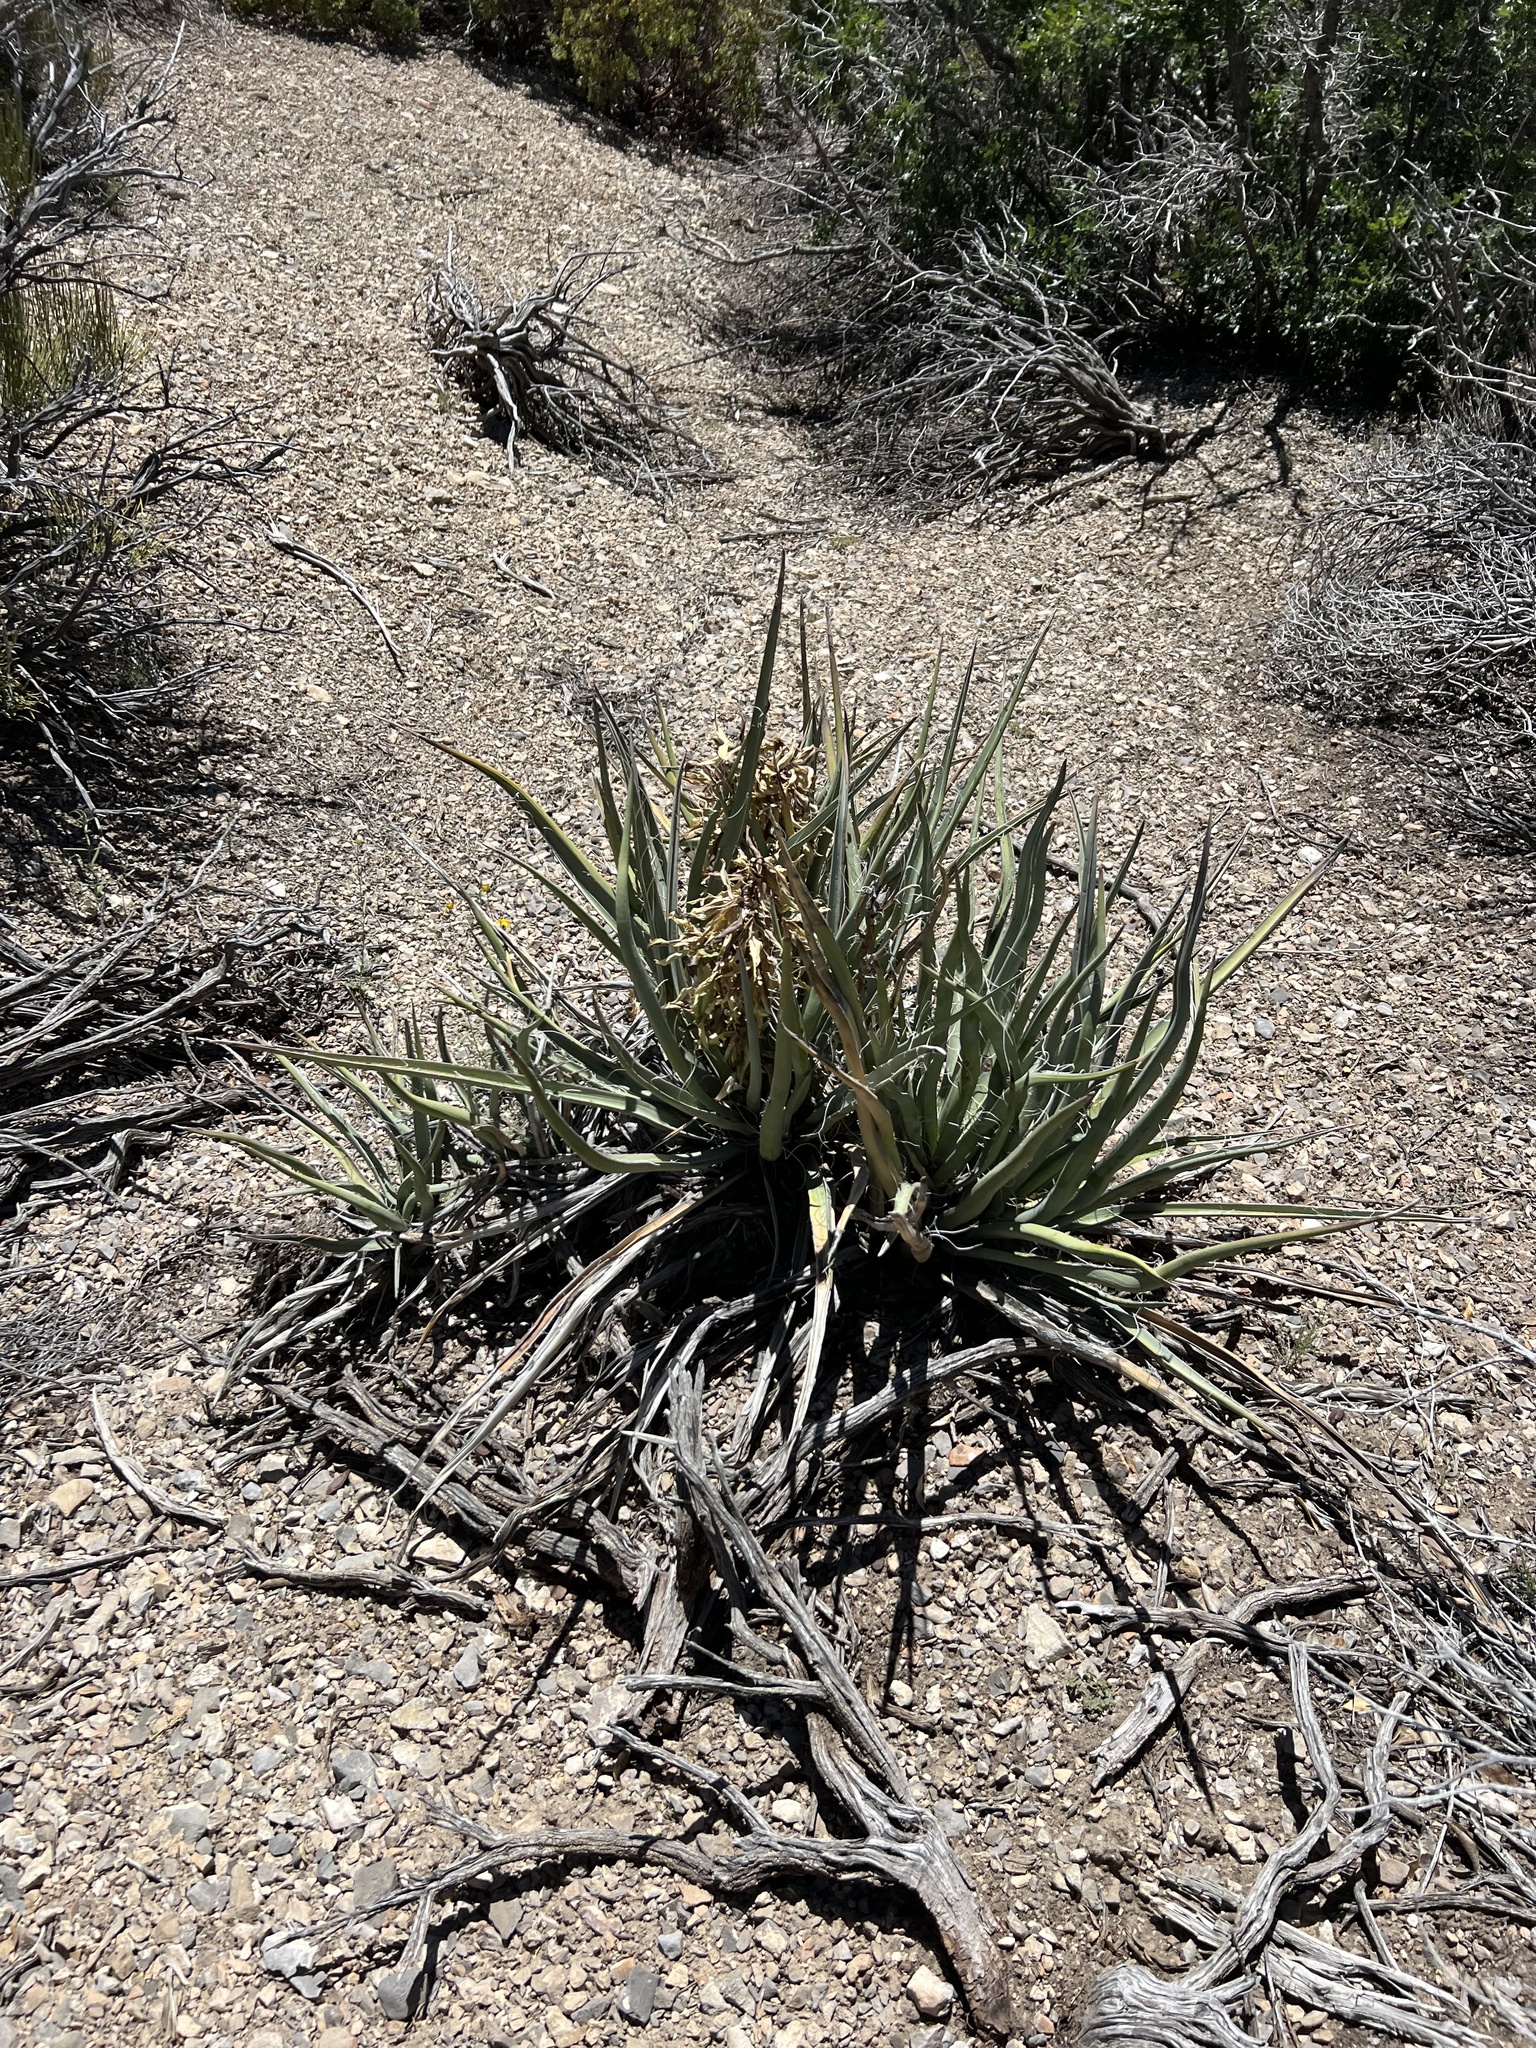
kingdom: Plantae
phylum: Tracheophyta
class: Liliopsida
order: Asparagales
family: Asparagaceae
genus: Yucca
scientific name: Yucca baccata
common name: Banana yucca
